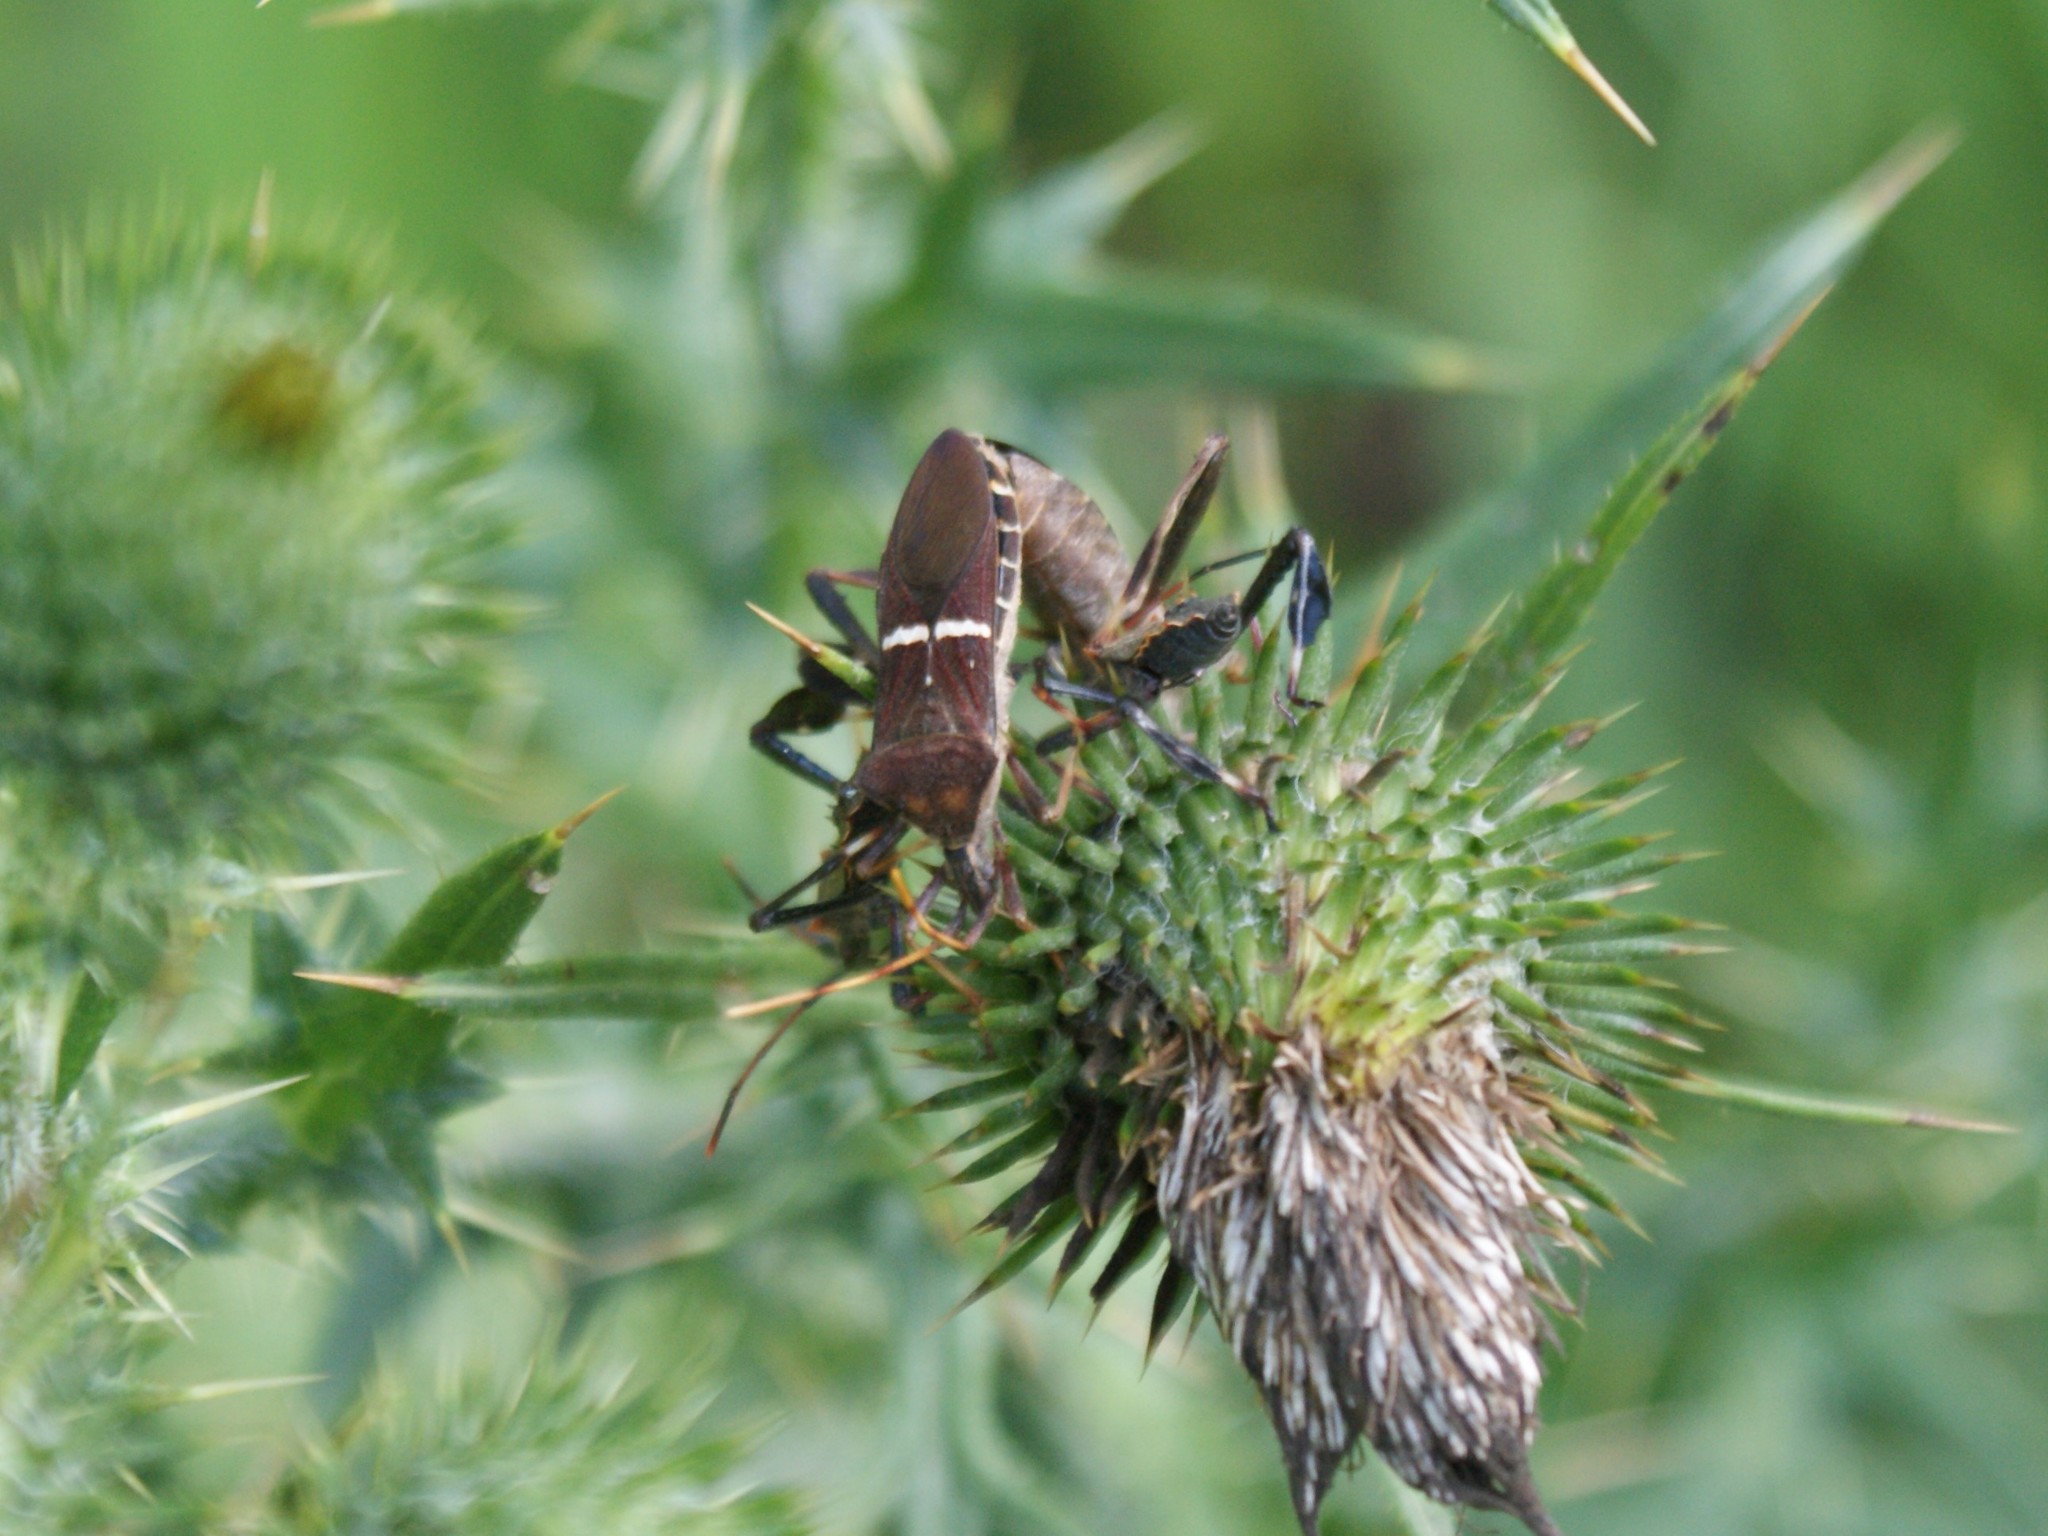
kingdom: Animalia
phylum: Arthropoda
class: Insecta
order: Hemiptera
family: Coreidae
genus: Leptoglossus
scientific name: Leptoglossus phyllopus
